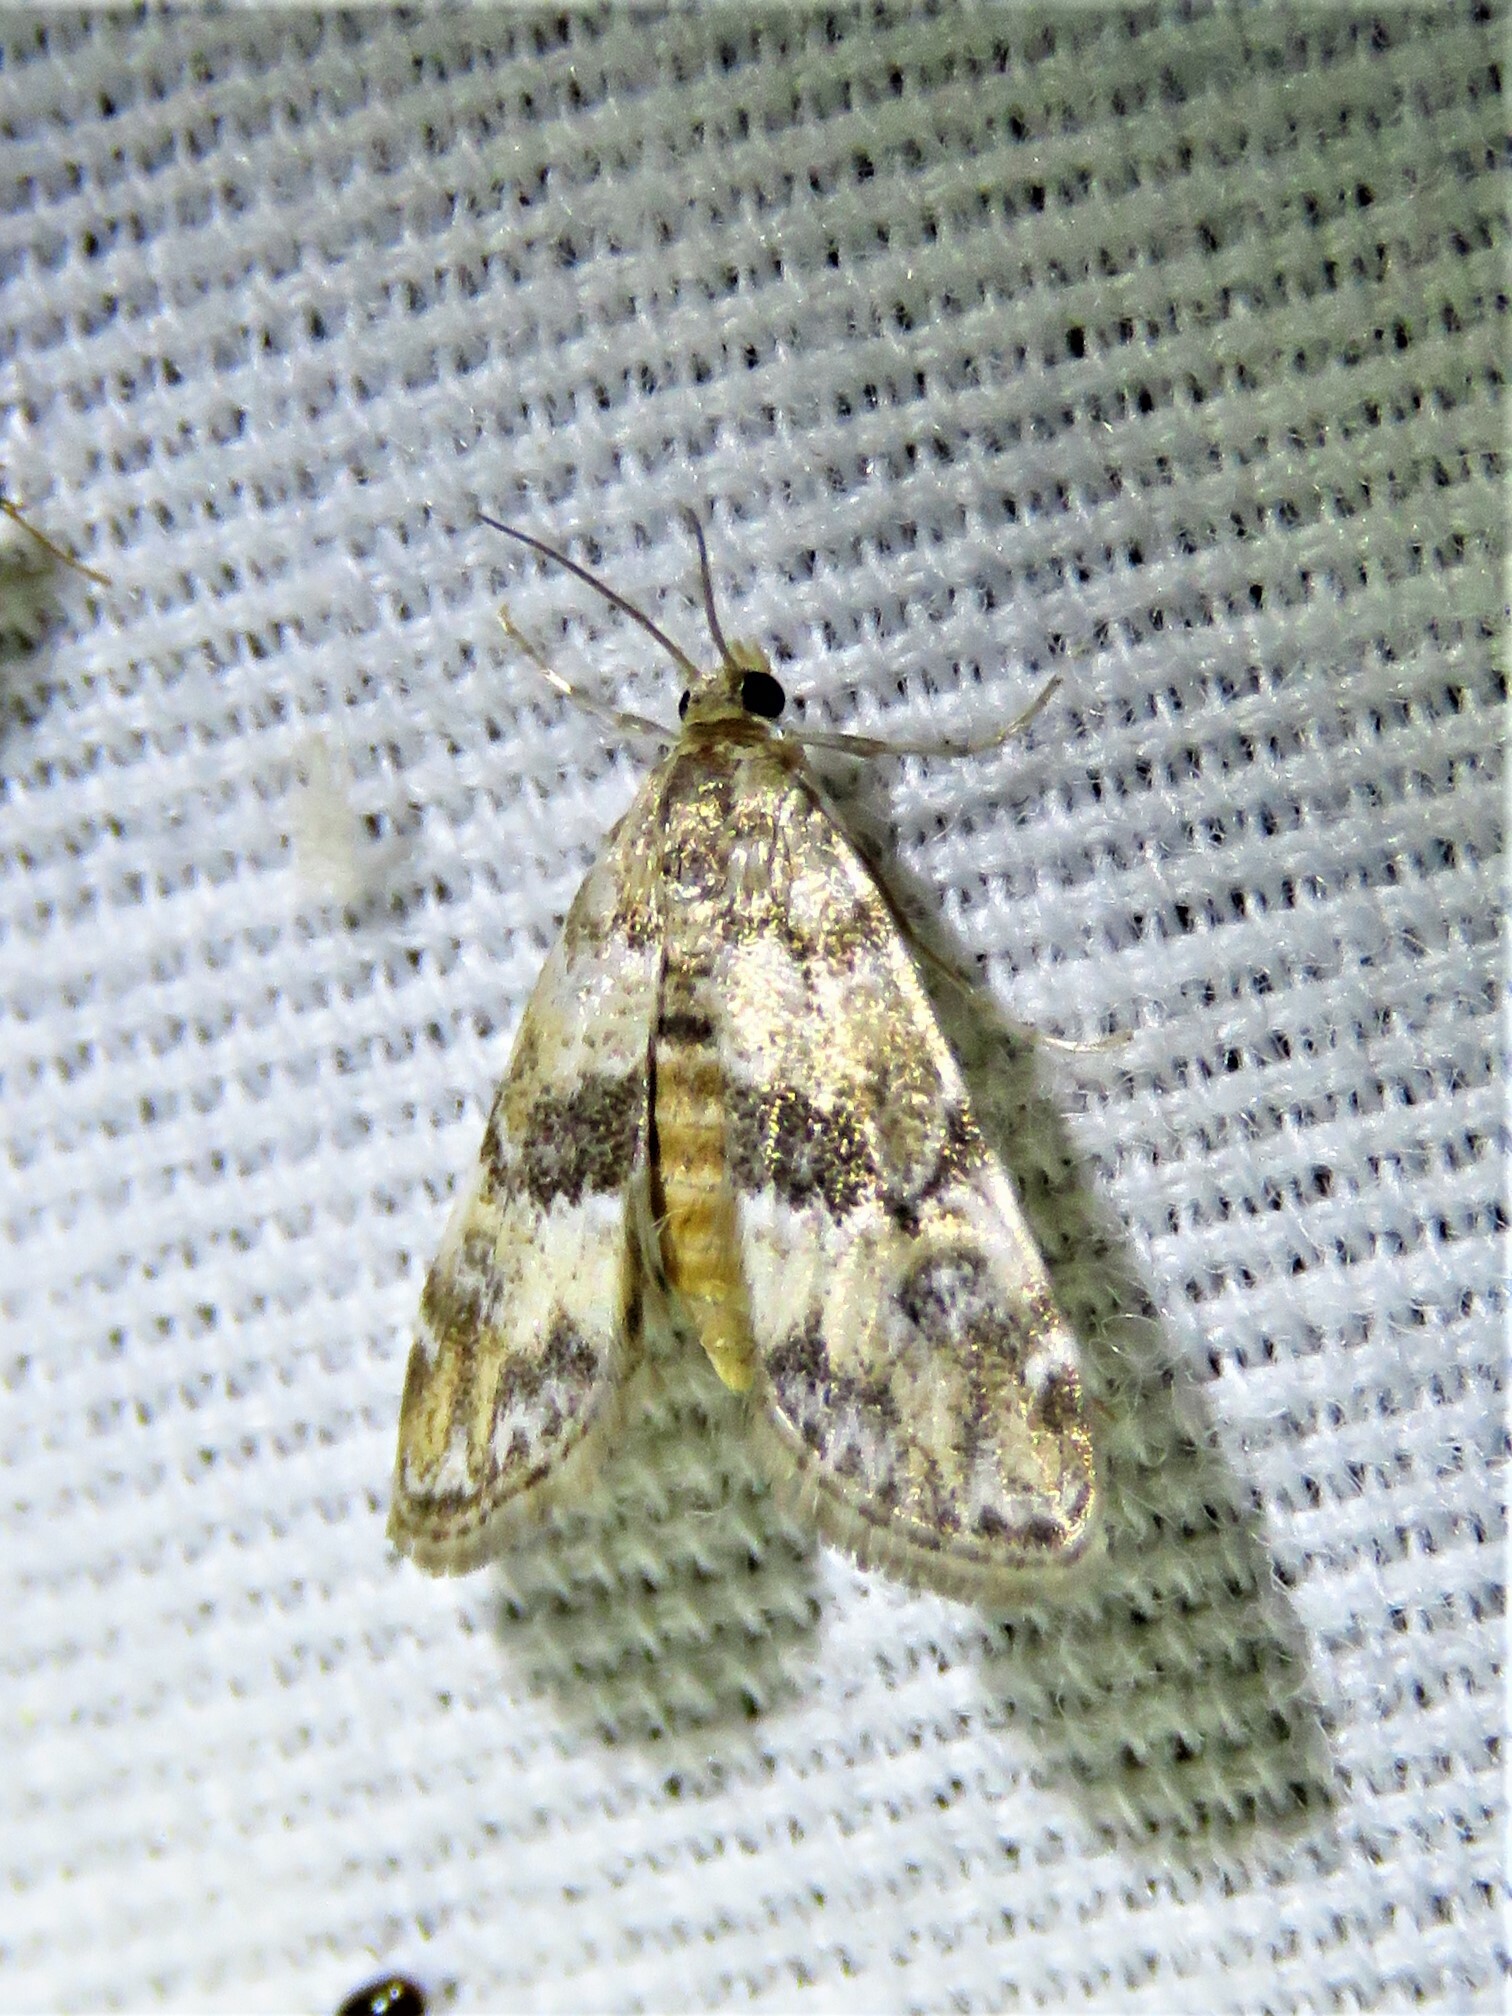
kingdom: Animalia
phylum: Arthropoda
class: Insecta
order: Lepidoptera
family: Crambidae
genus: Elophila
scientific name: Elophila obliteralis
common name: Waterlily leafcutter moth
